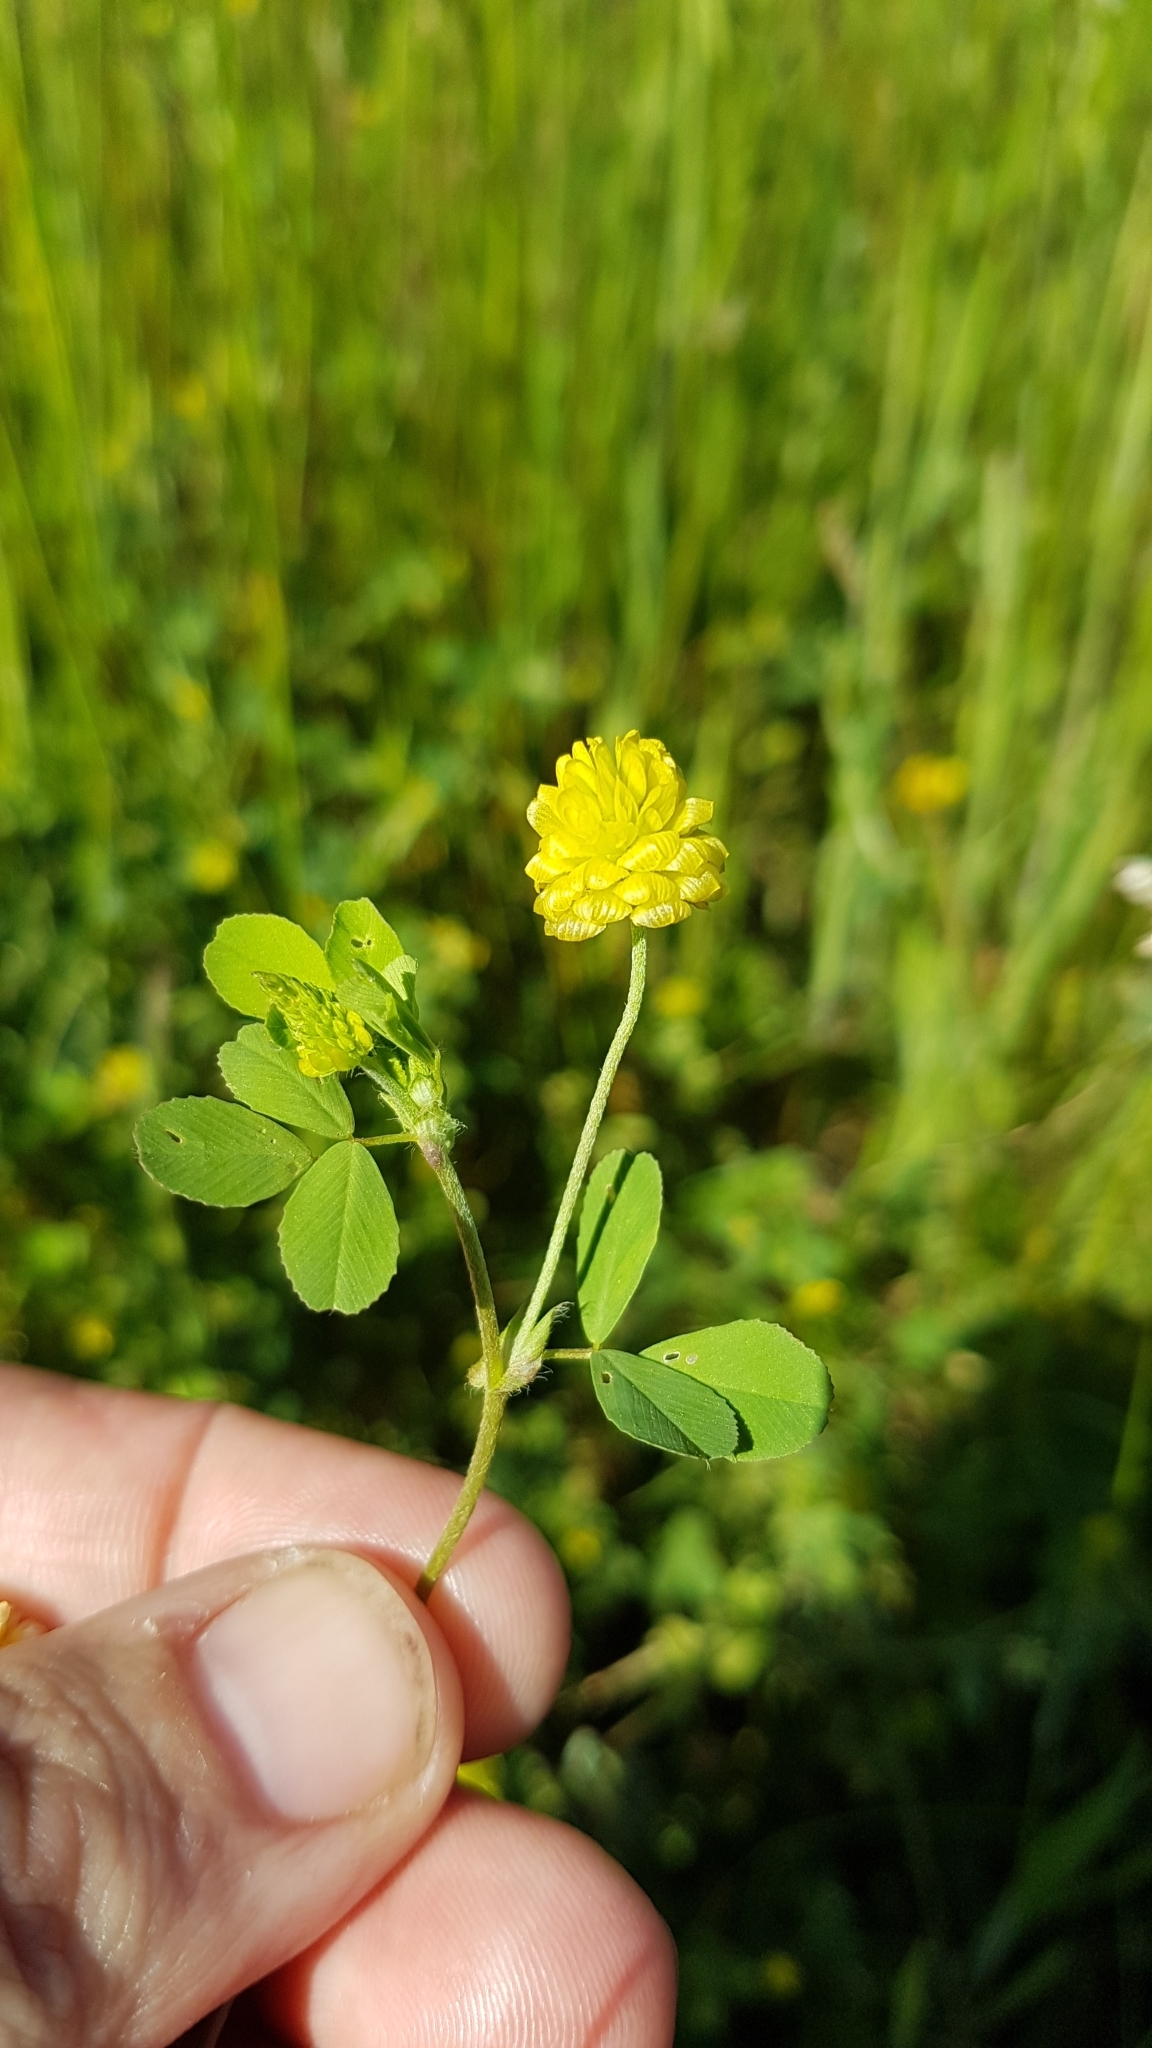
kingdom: Plantae
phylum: Tracheophyta
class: Magnoliopsida
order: Fabales
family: Fabaceae
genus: Trifolium
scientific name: Trifolium campestre
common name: Field clover
